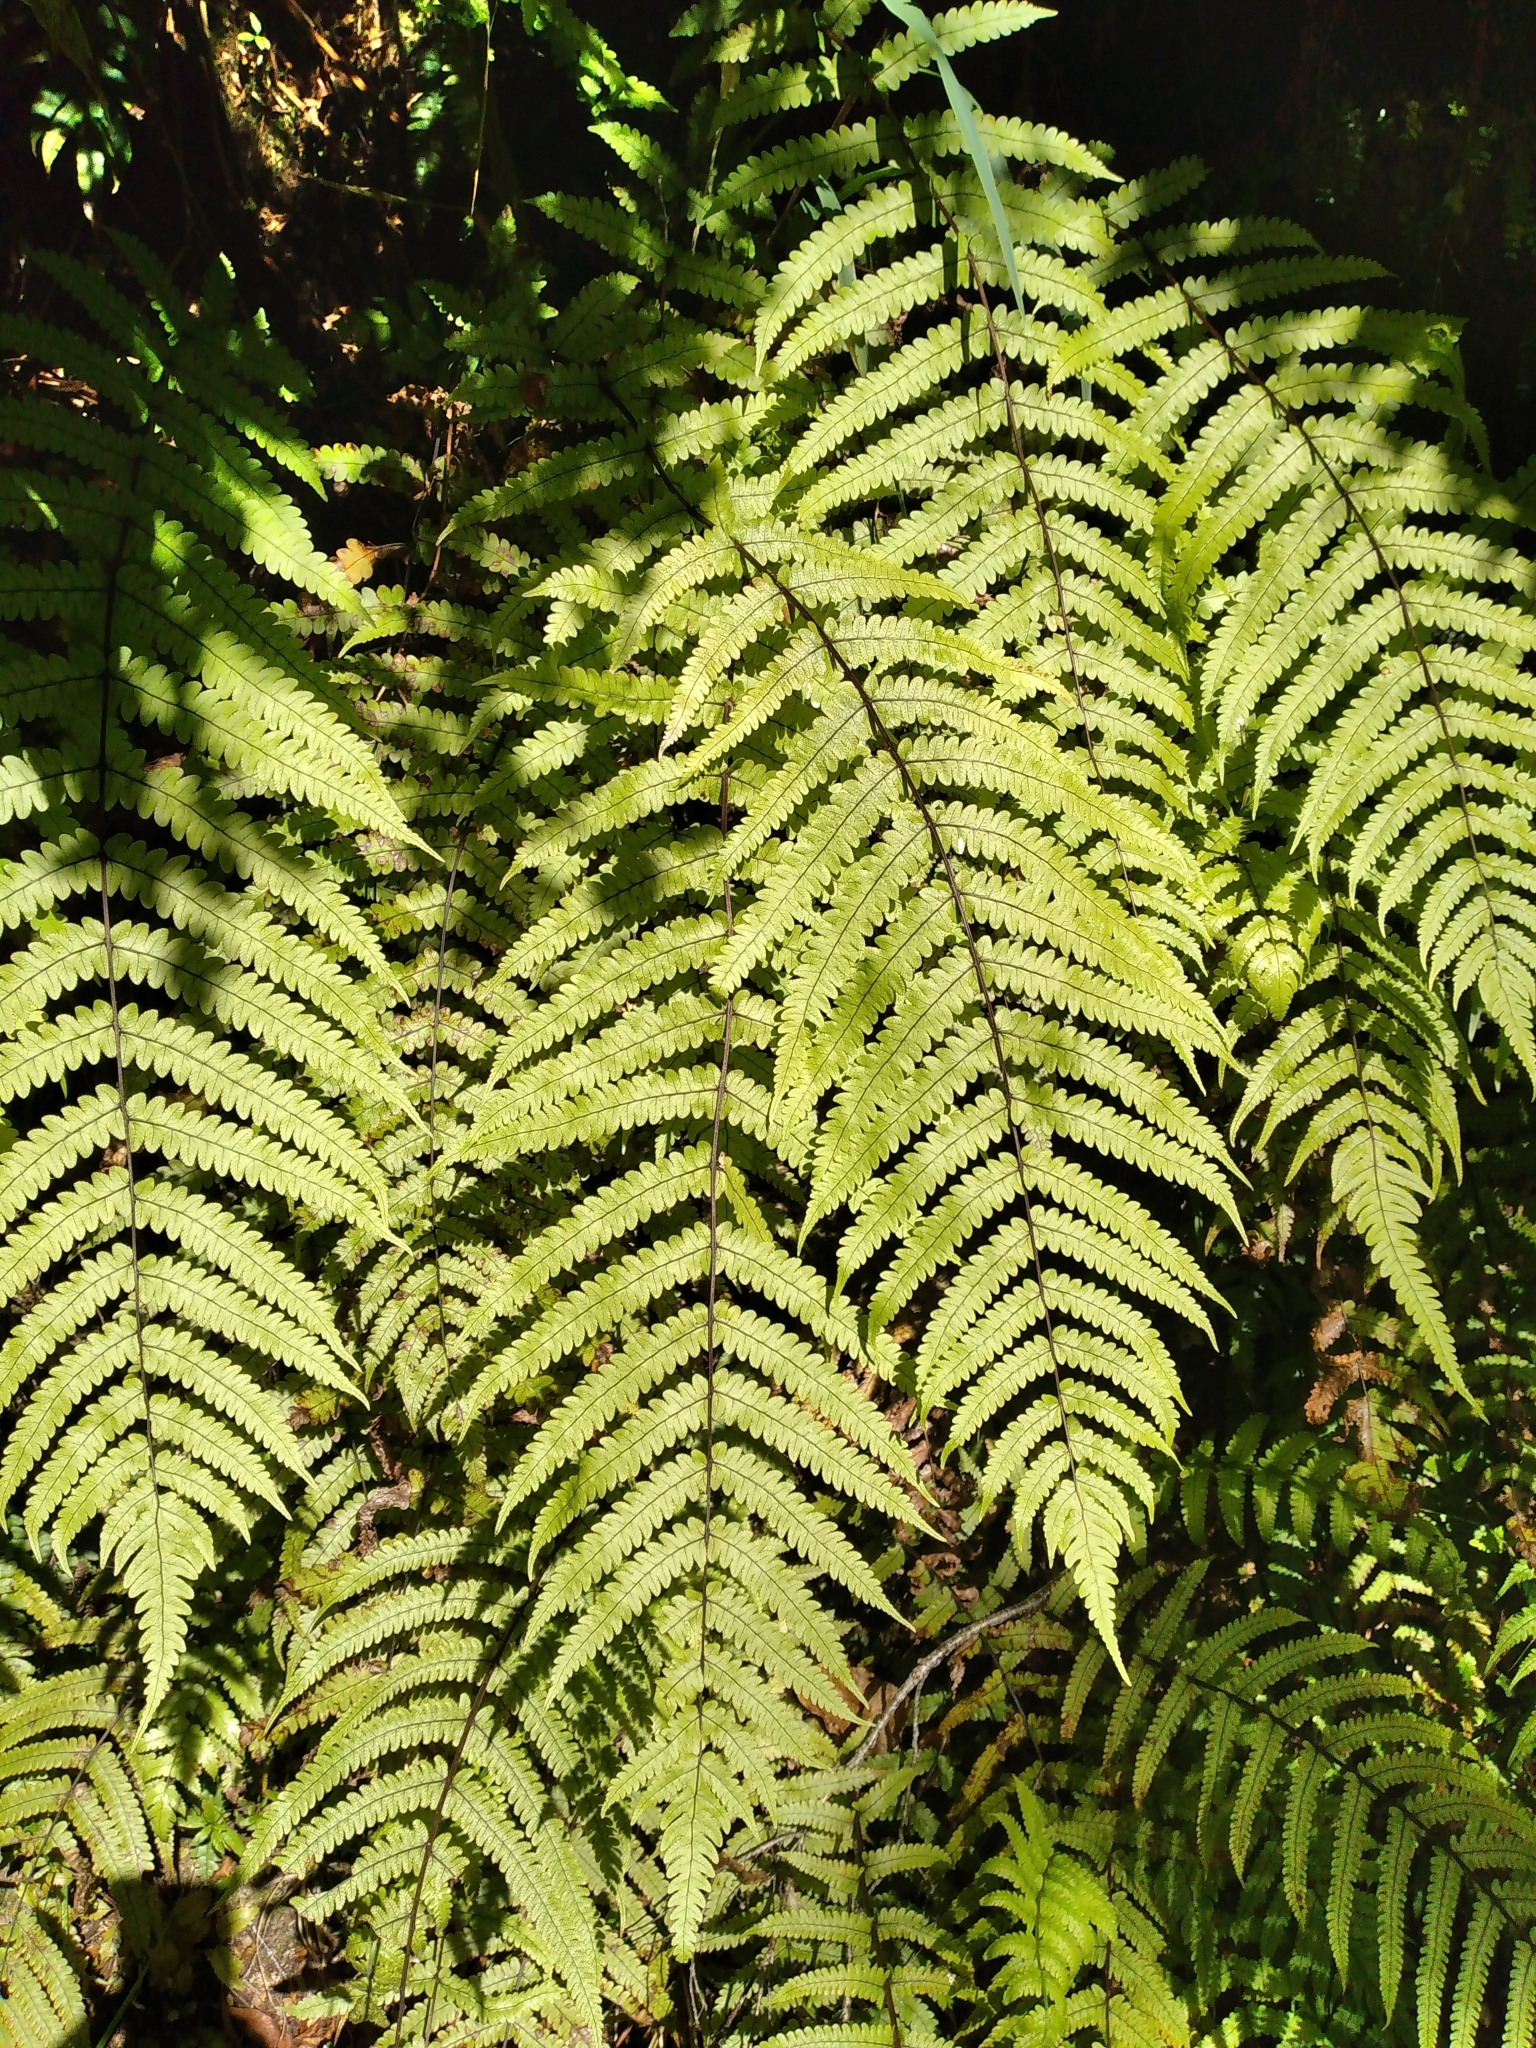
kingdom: Plantae
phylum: Tracheophyta
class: Polypodiopsida
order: Polypodiales
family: Thelypteridaceae
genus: Pakau
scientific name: Pakau pennigera
